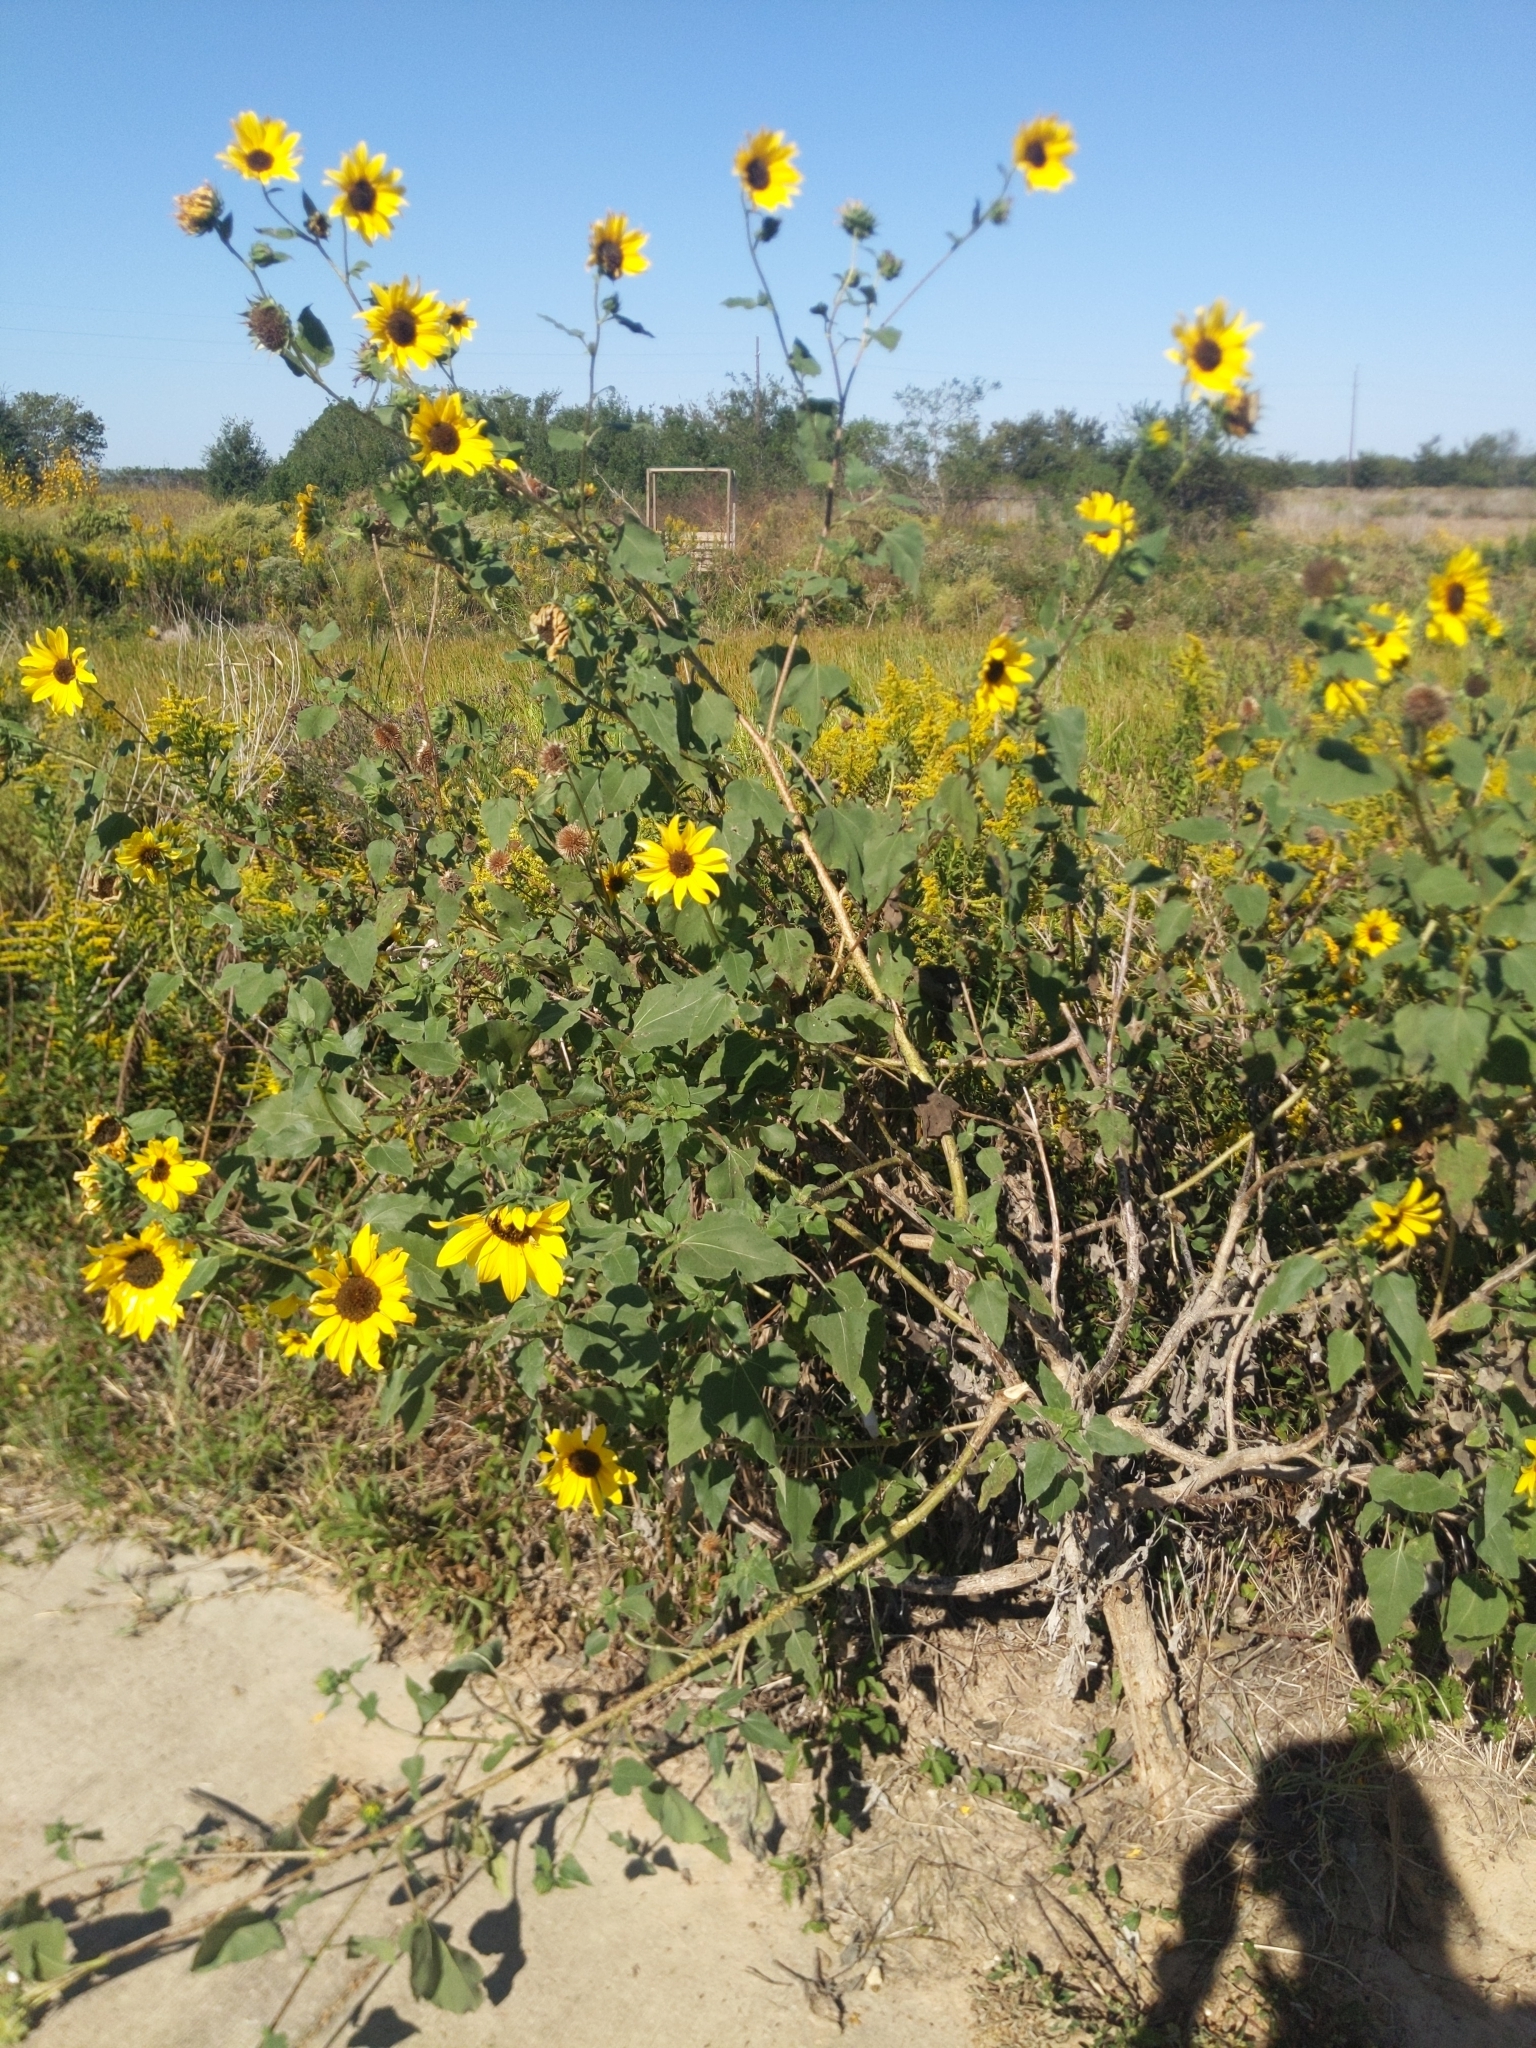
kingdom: Plantae
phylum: Tracheophyta
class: Magnoliopsida
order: Asterales
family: Asteraceae
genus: Helianthus
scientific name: Helianthus annuus
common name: Sunflower
